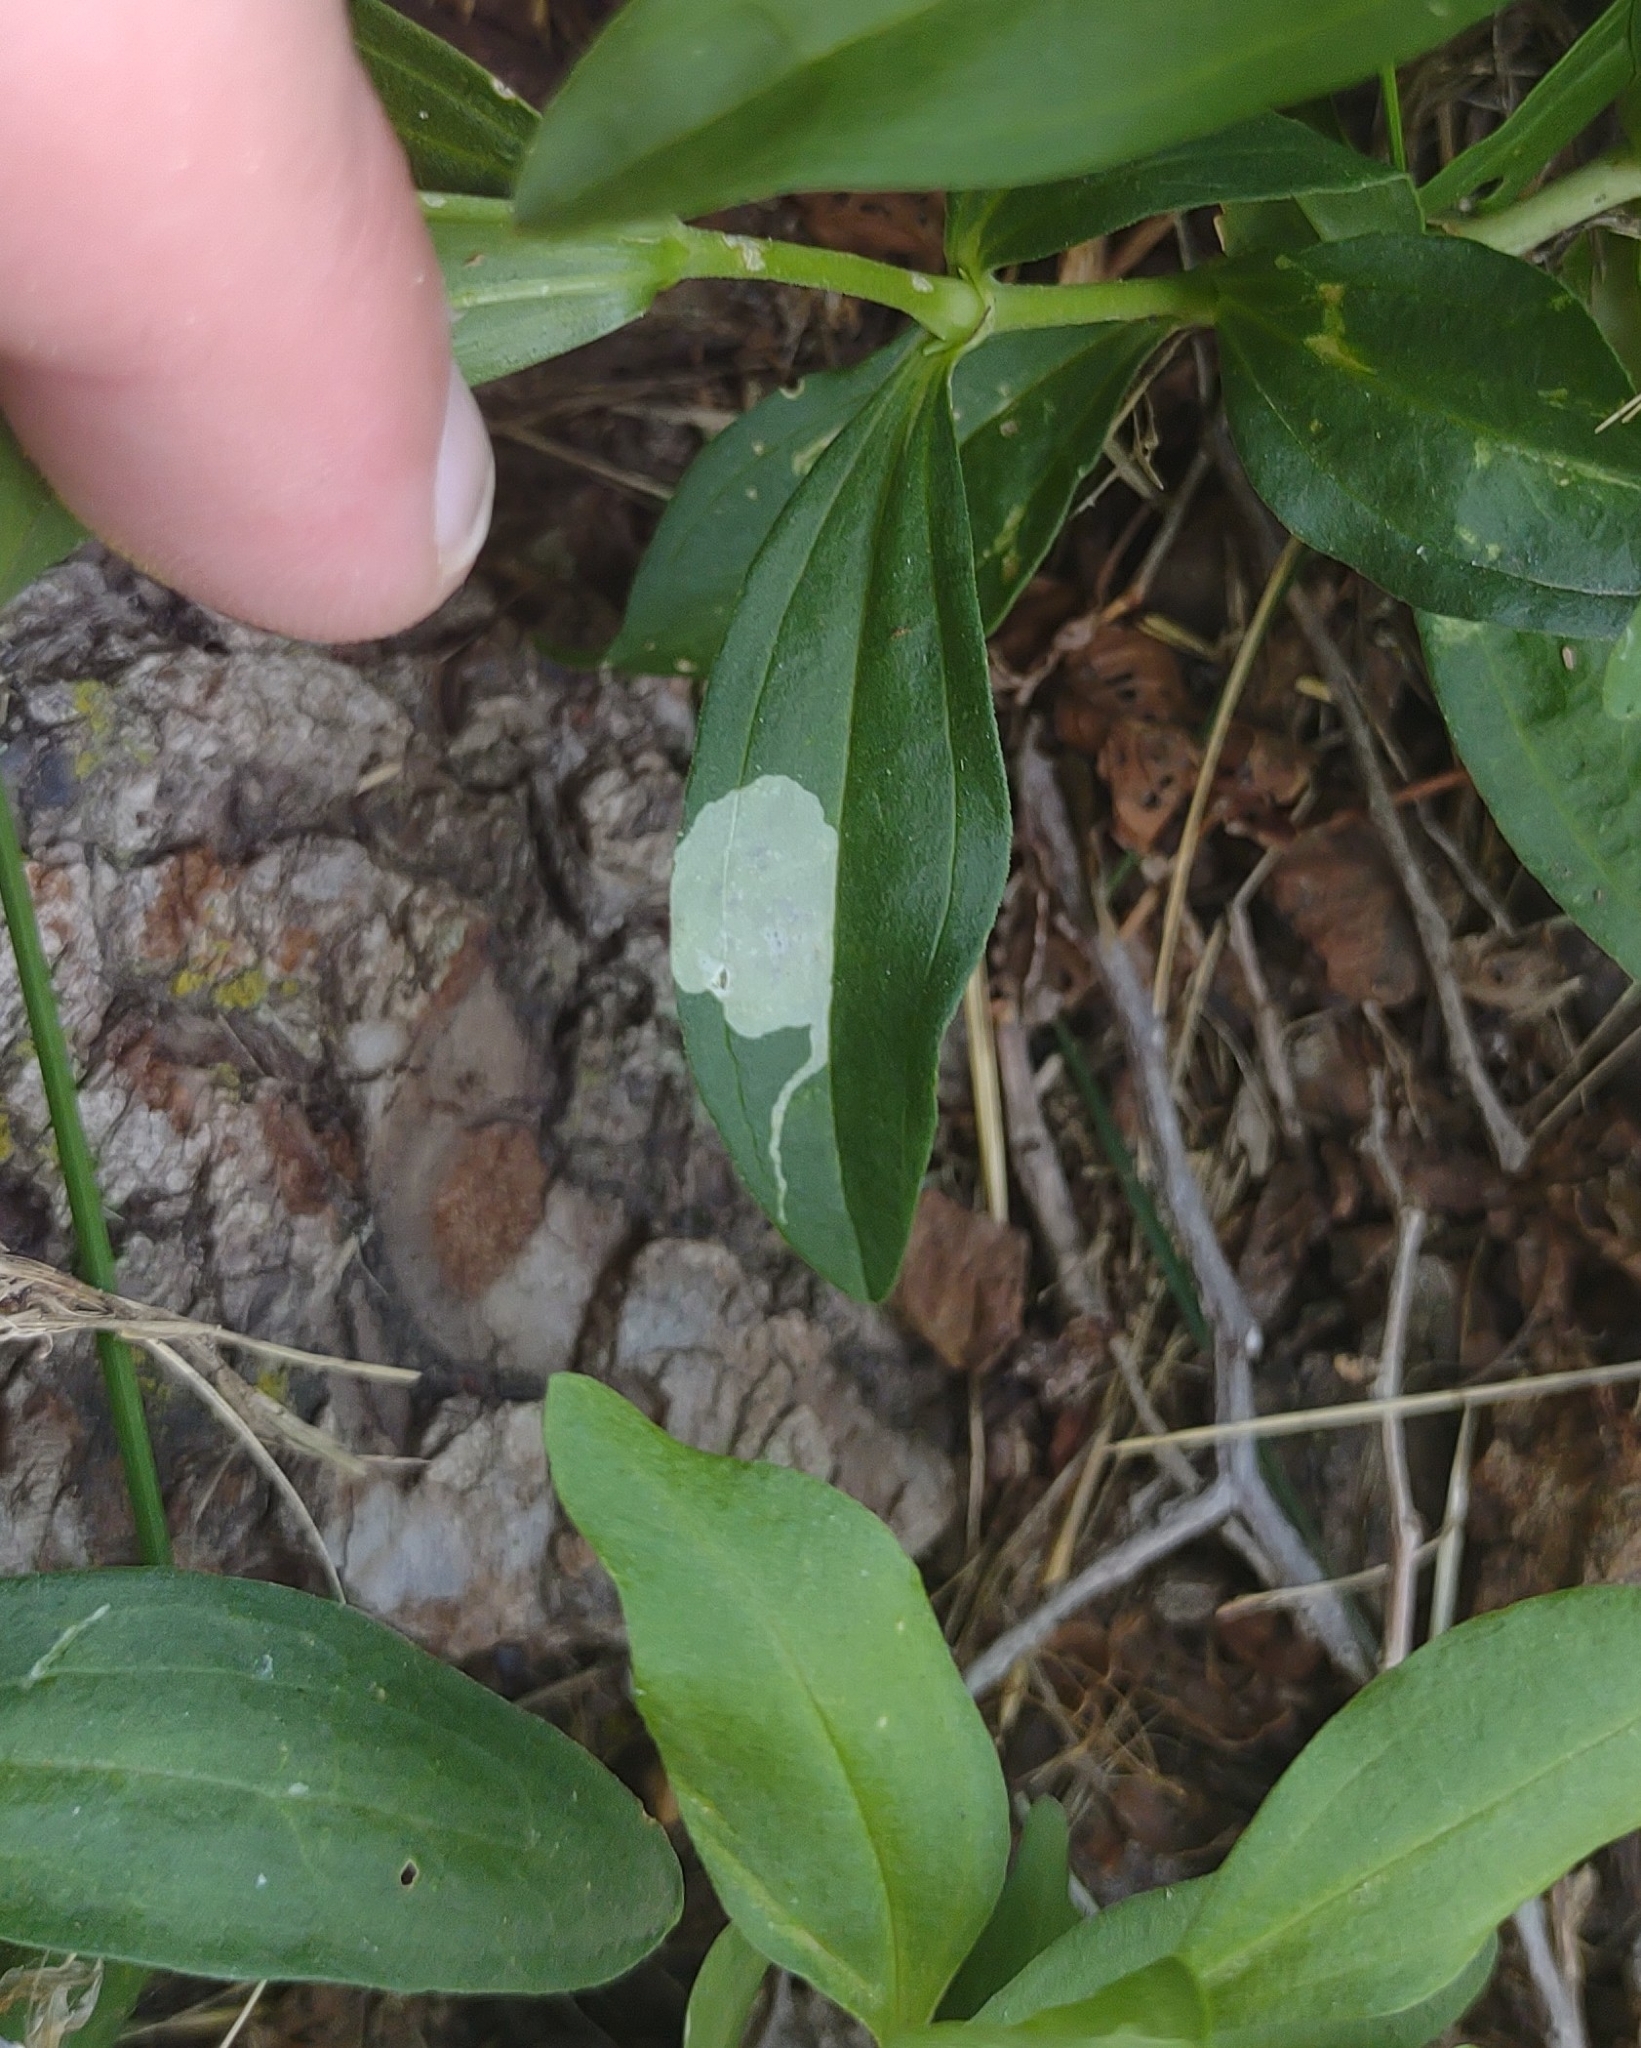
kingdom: Animalia
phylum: Arthropoda
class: Insecta
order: Diptera
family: Agromyzidae
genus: Amauromyza
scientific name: Amauromyza flavifrons
